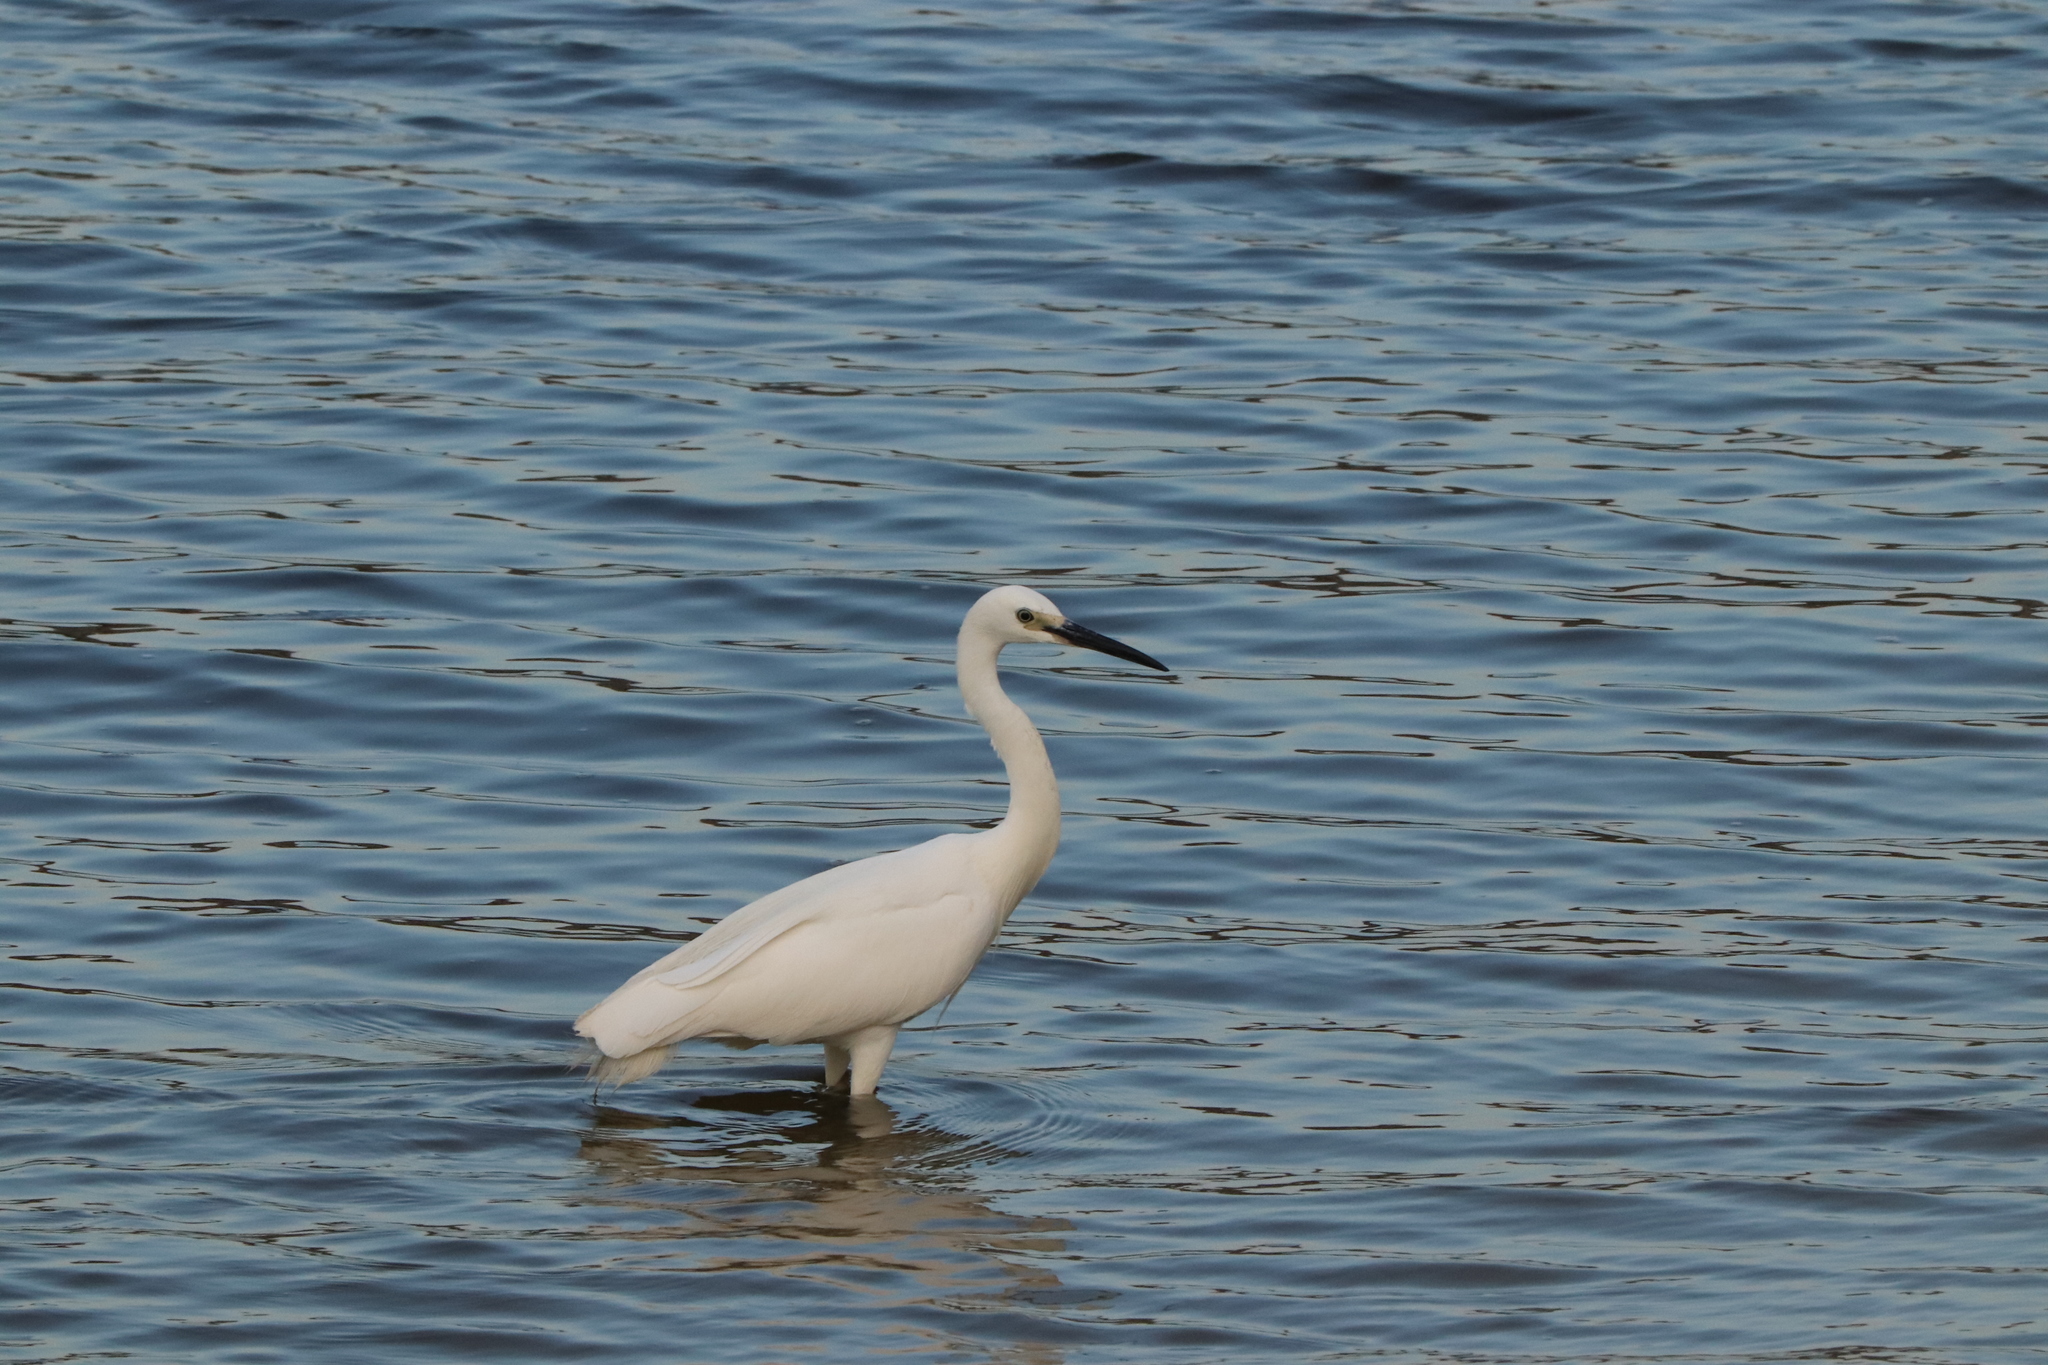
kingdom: Animalia
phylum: Chordata
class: Aves
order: Pelecaniformes
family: Ardeidae
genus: Egretta
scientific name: Egretta garzetta
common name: Little egret
